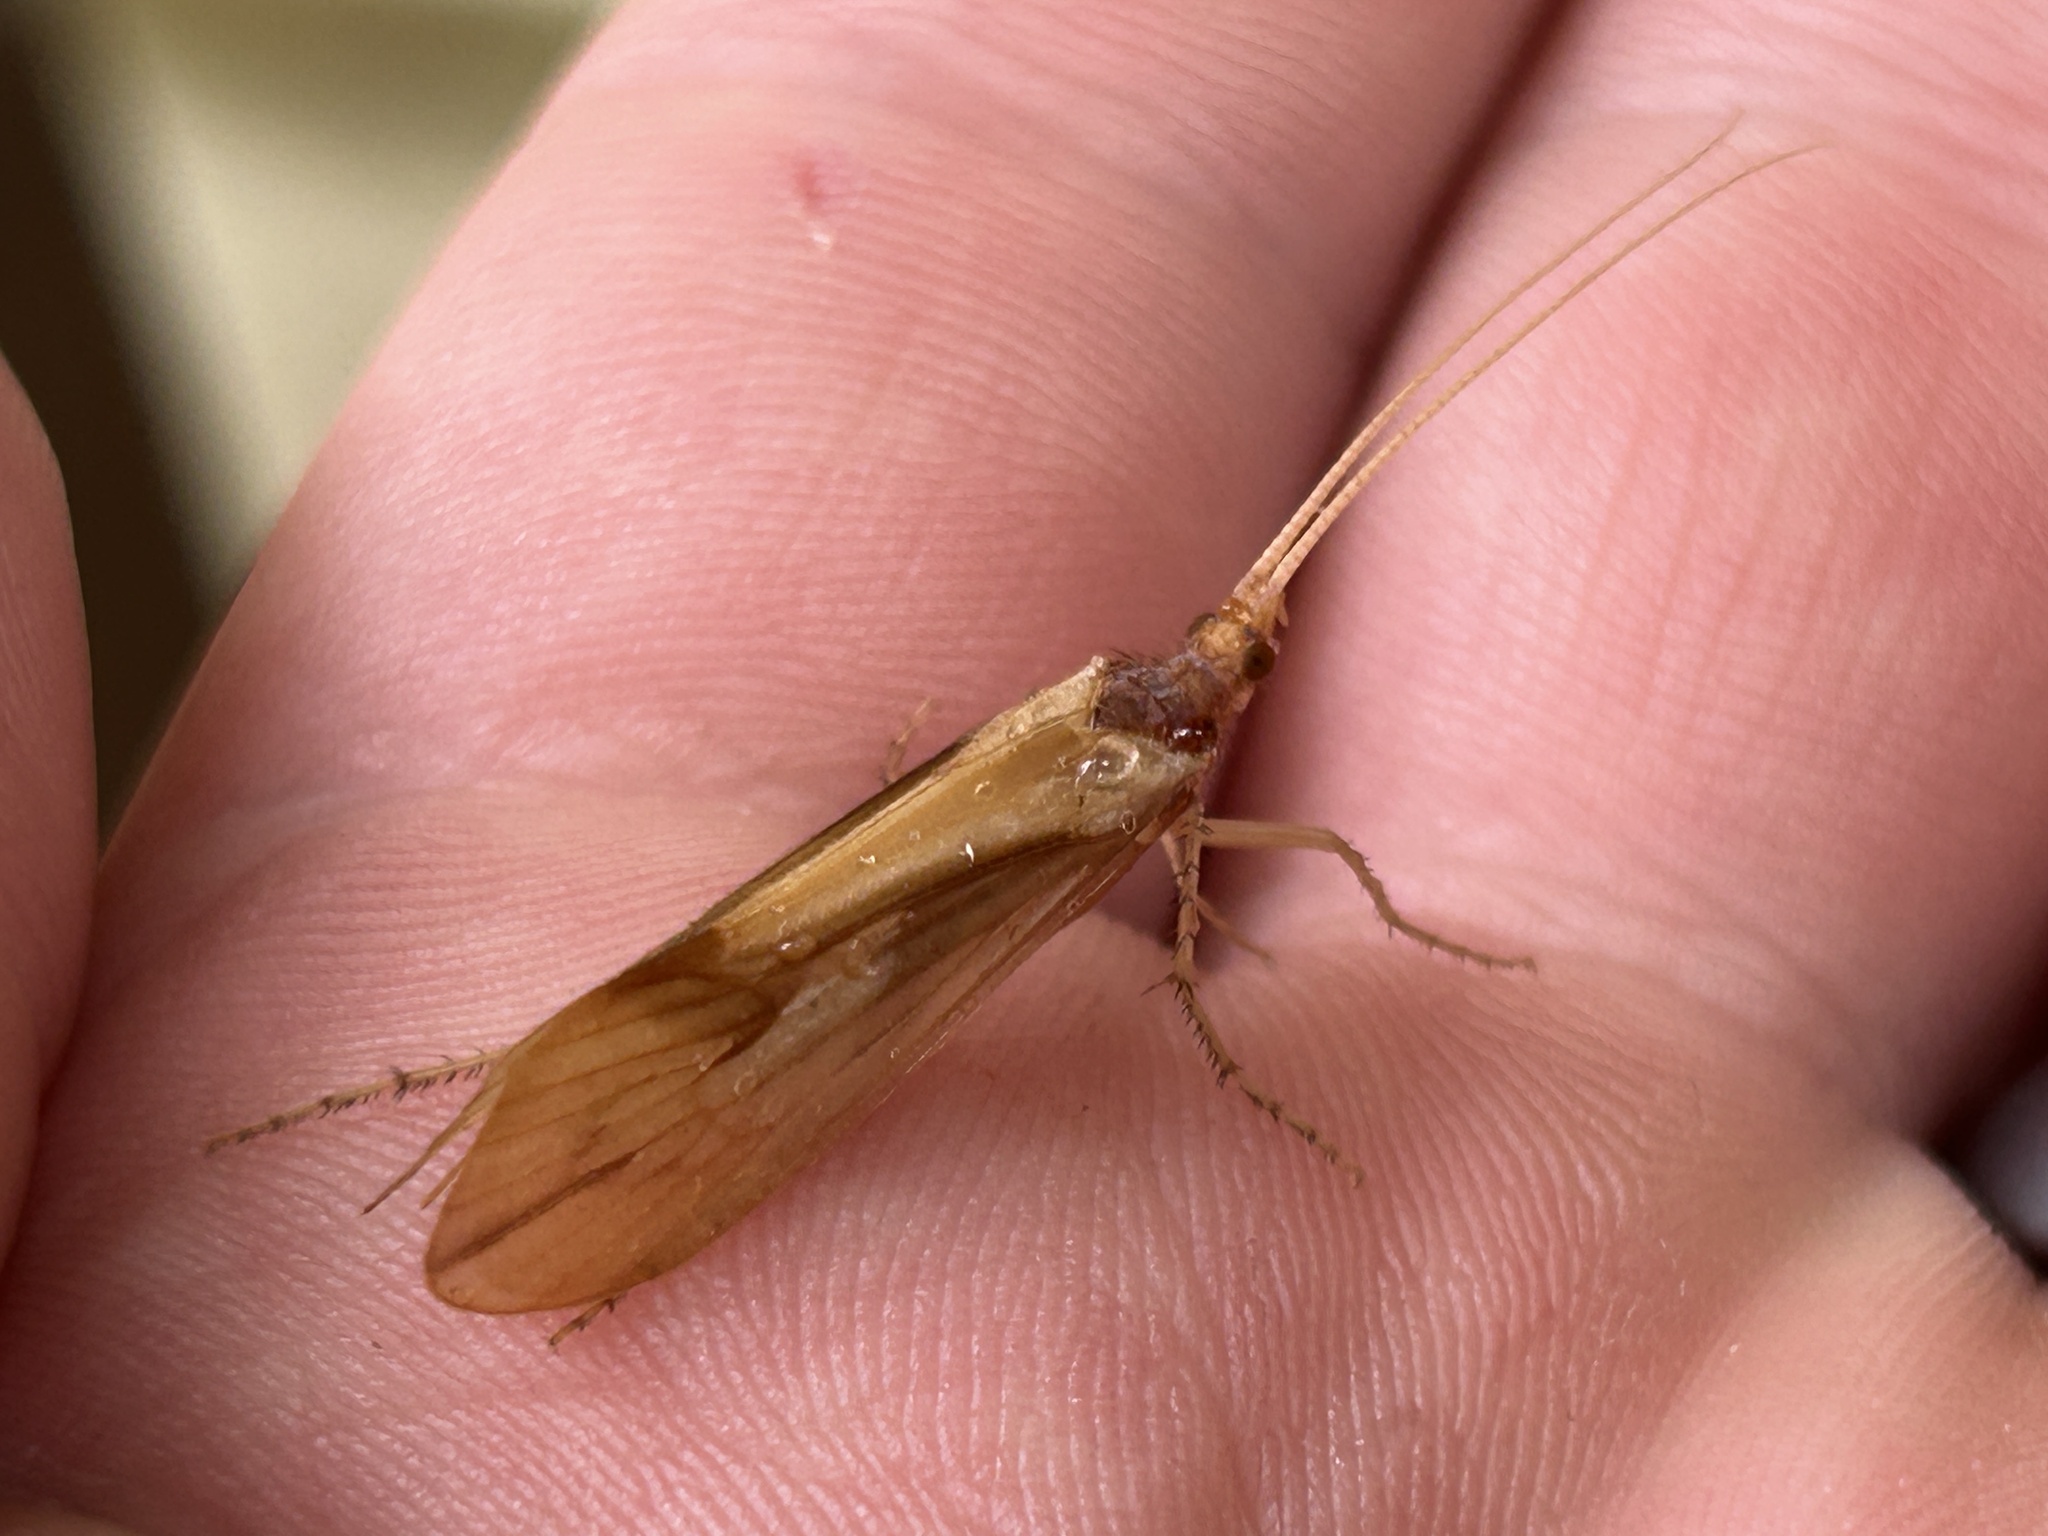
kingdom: Animalia
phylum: Arthropoda
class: Insecta
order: Trichoptera
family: Limnephilidae
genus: Platycentropus
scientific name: Platycentropus radiatus
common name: Chocolate-and-cream sedge
